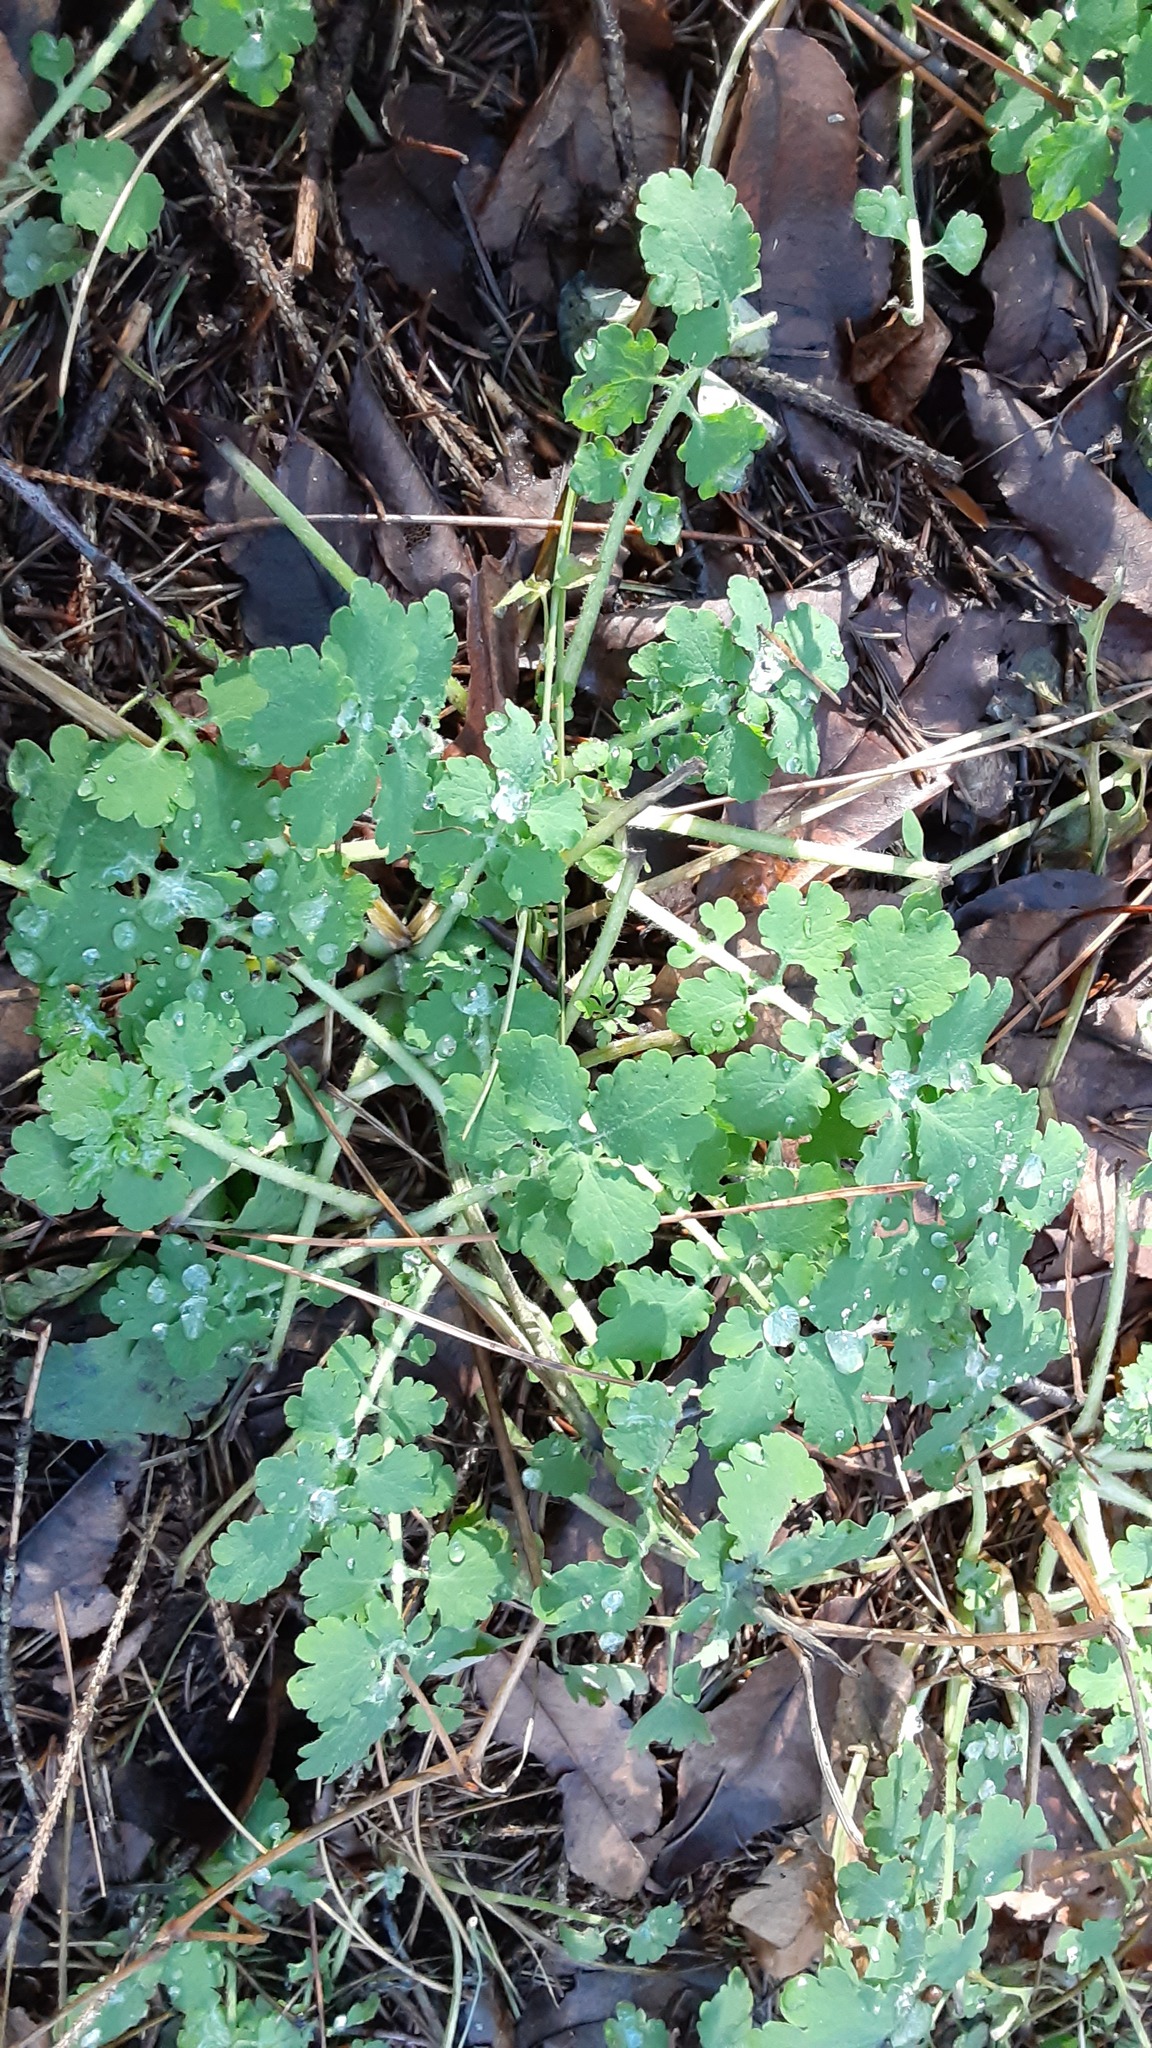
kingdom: Plantae
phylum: Tracheophyta
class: Magnoliopsida
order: Ranunculales
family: Papaveraceae
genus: Chelidonium
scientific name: Chelidonium majus
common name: Greater celandine
